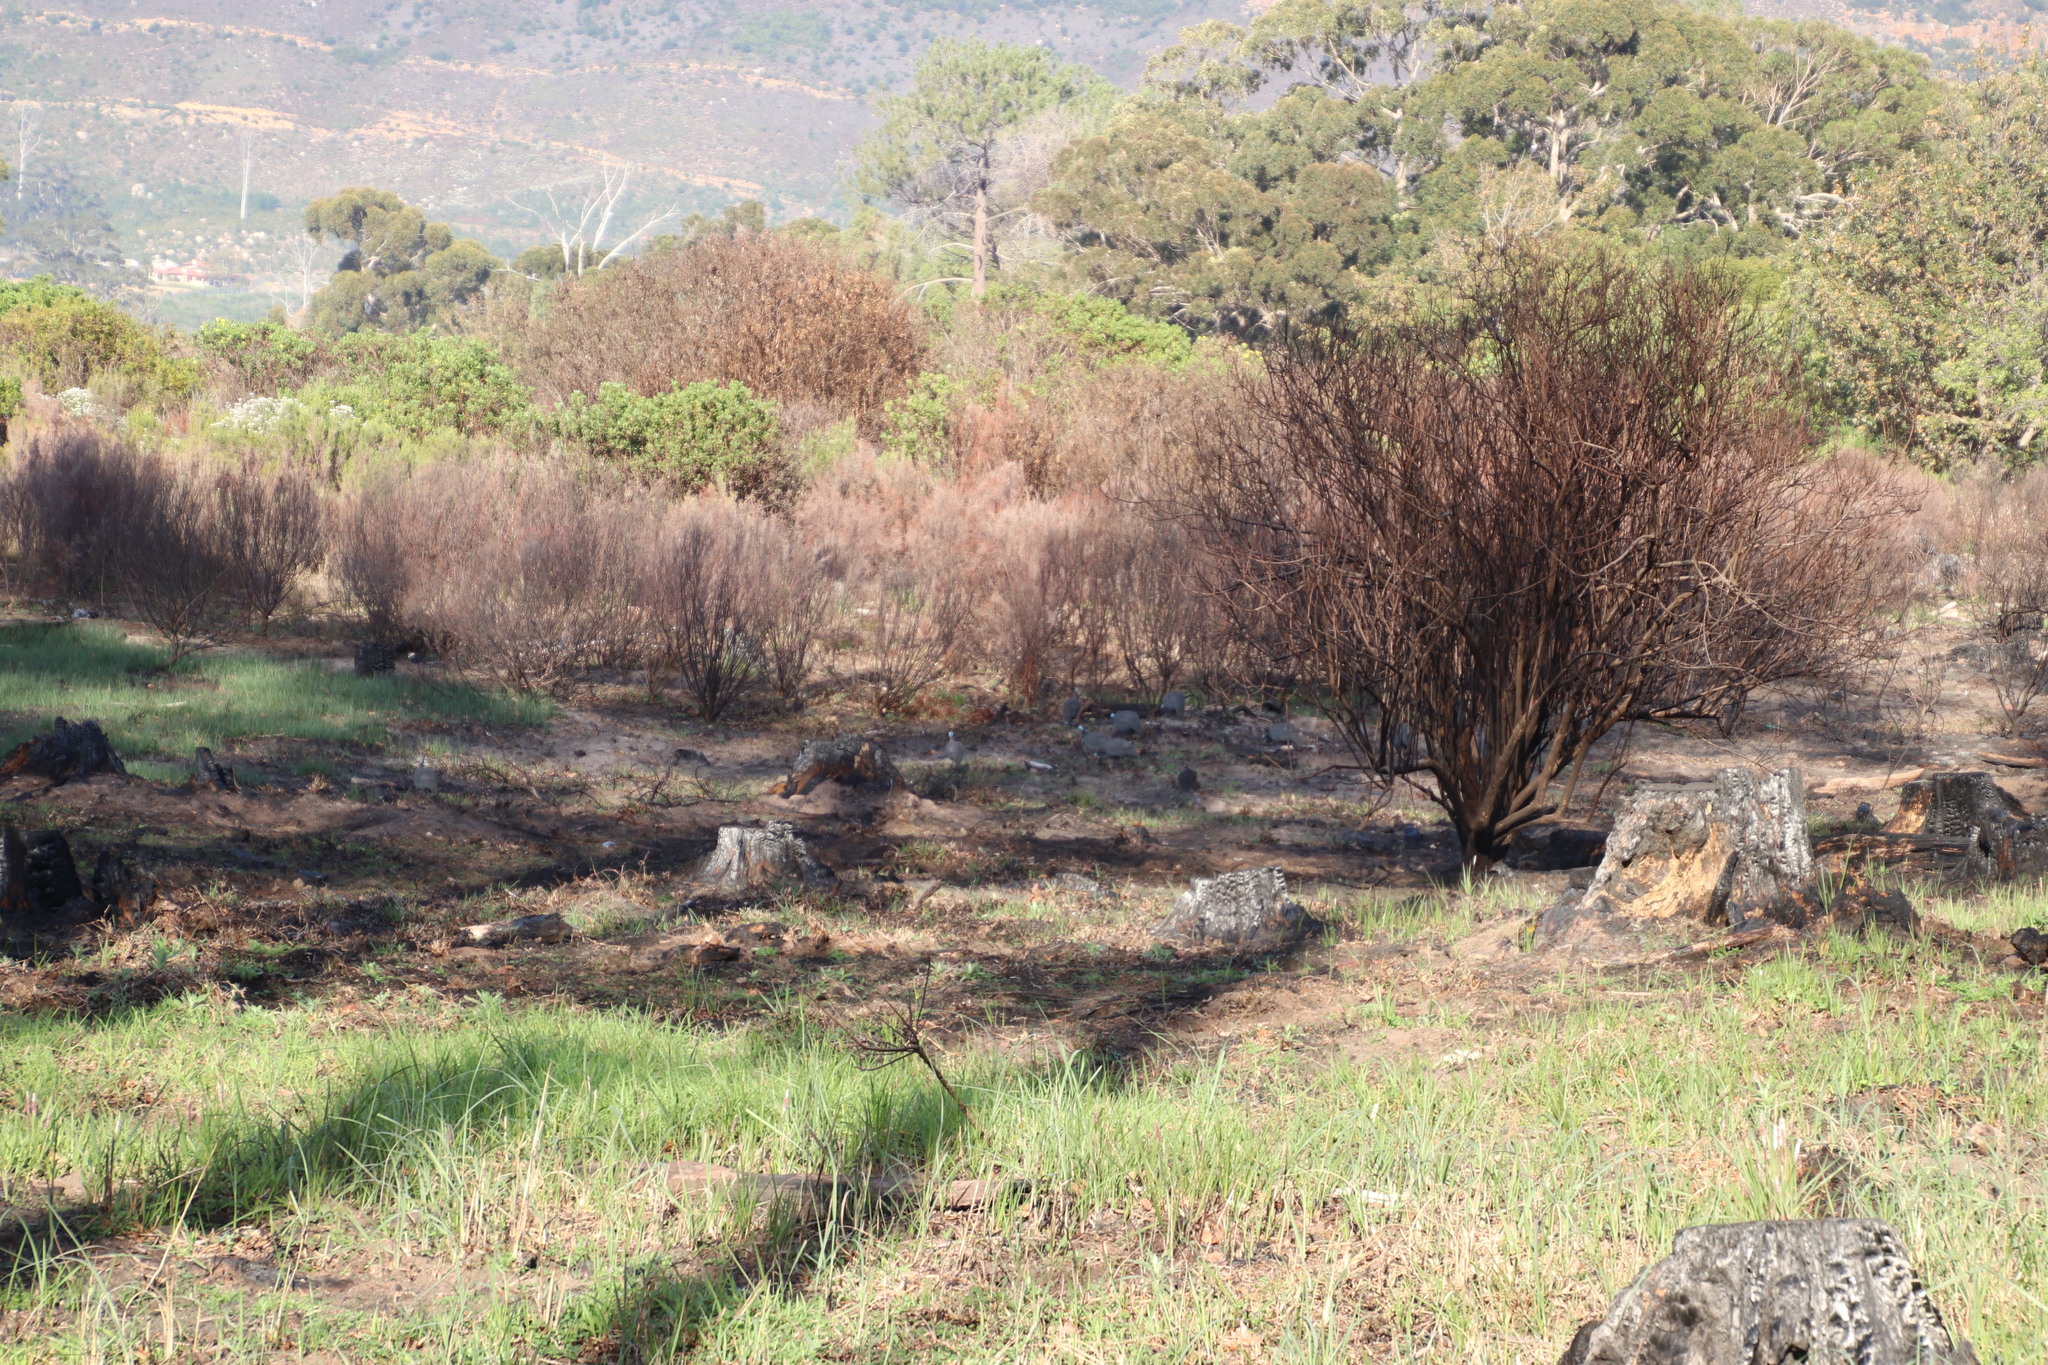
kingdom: Animalia
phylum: Chordata
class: Aves
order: Galliformes
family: Numididae
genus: Numida
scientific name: Numida meleagris
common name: Helmeted guineafowl
